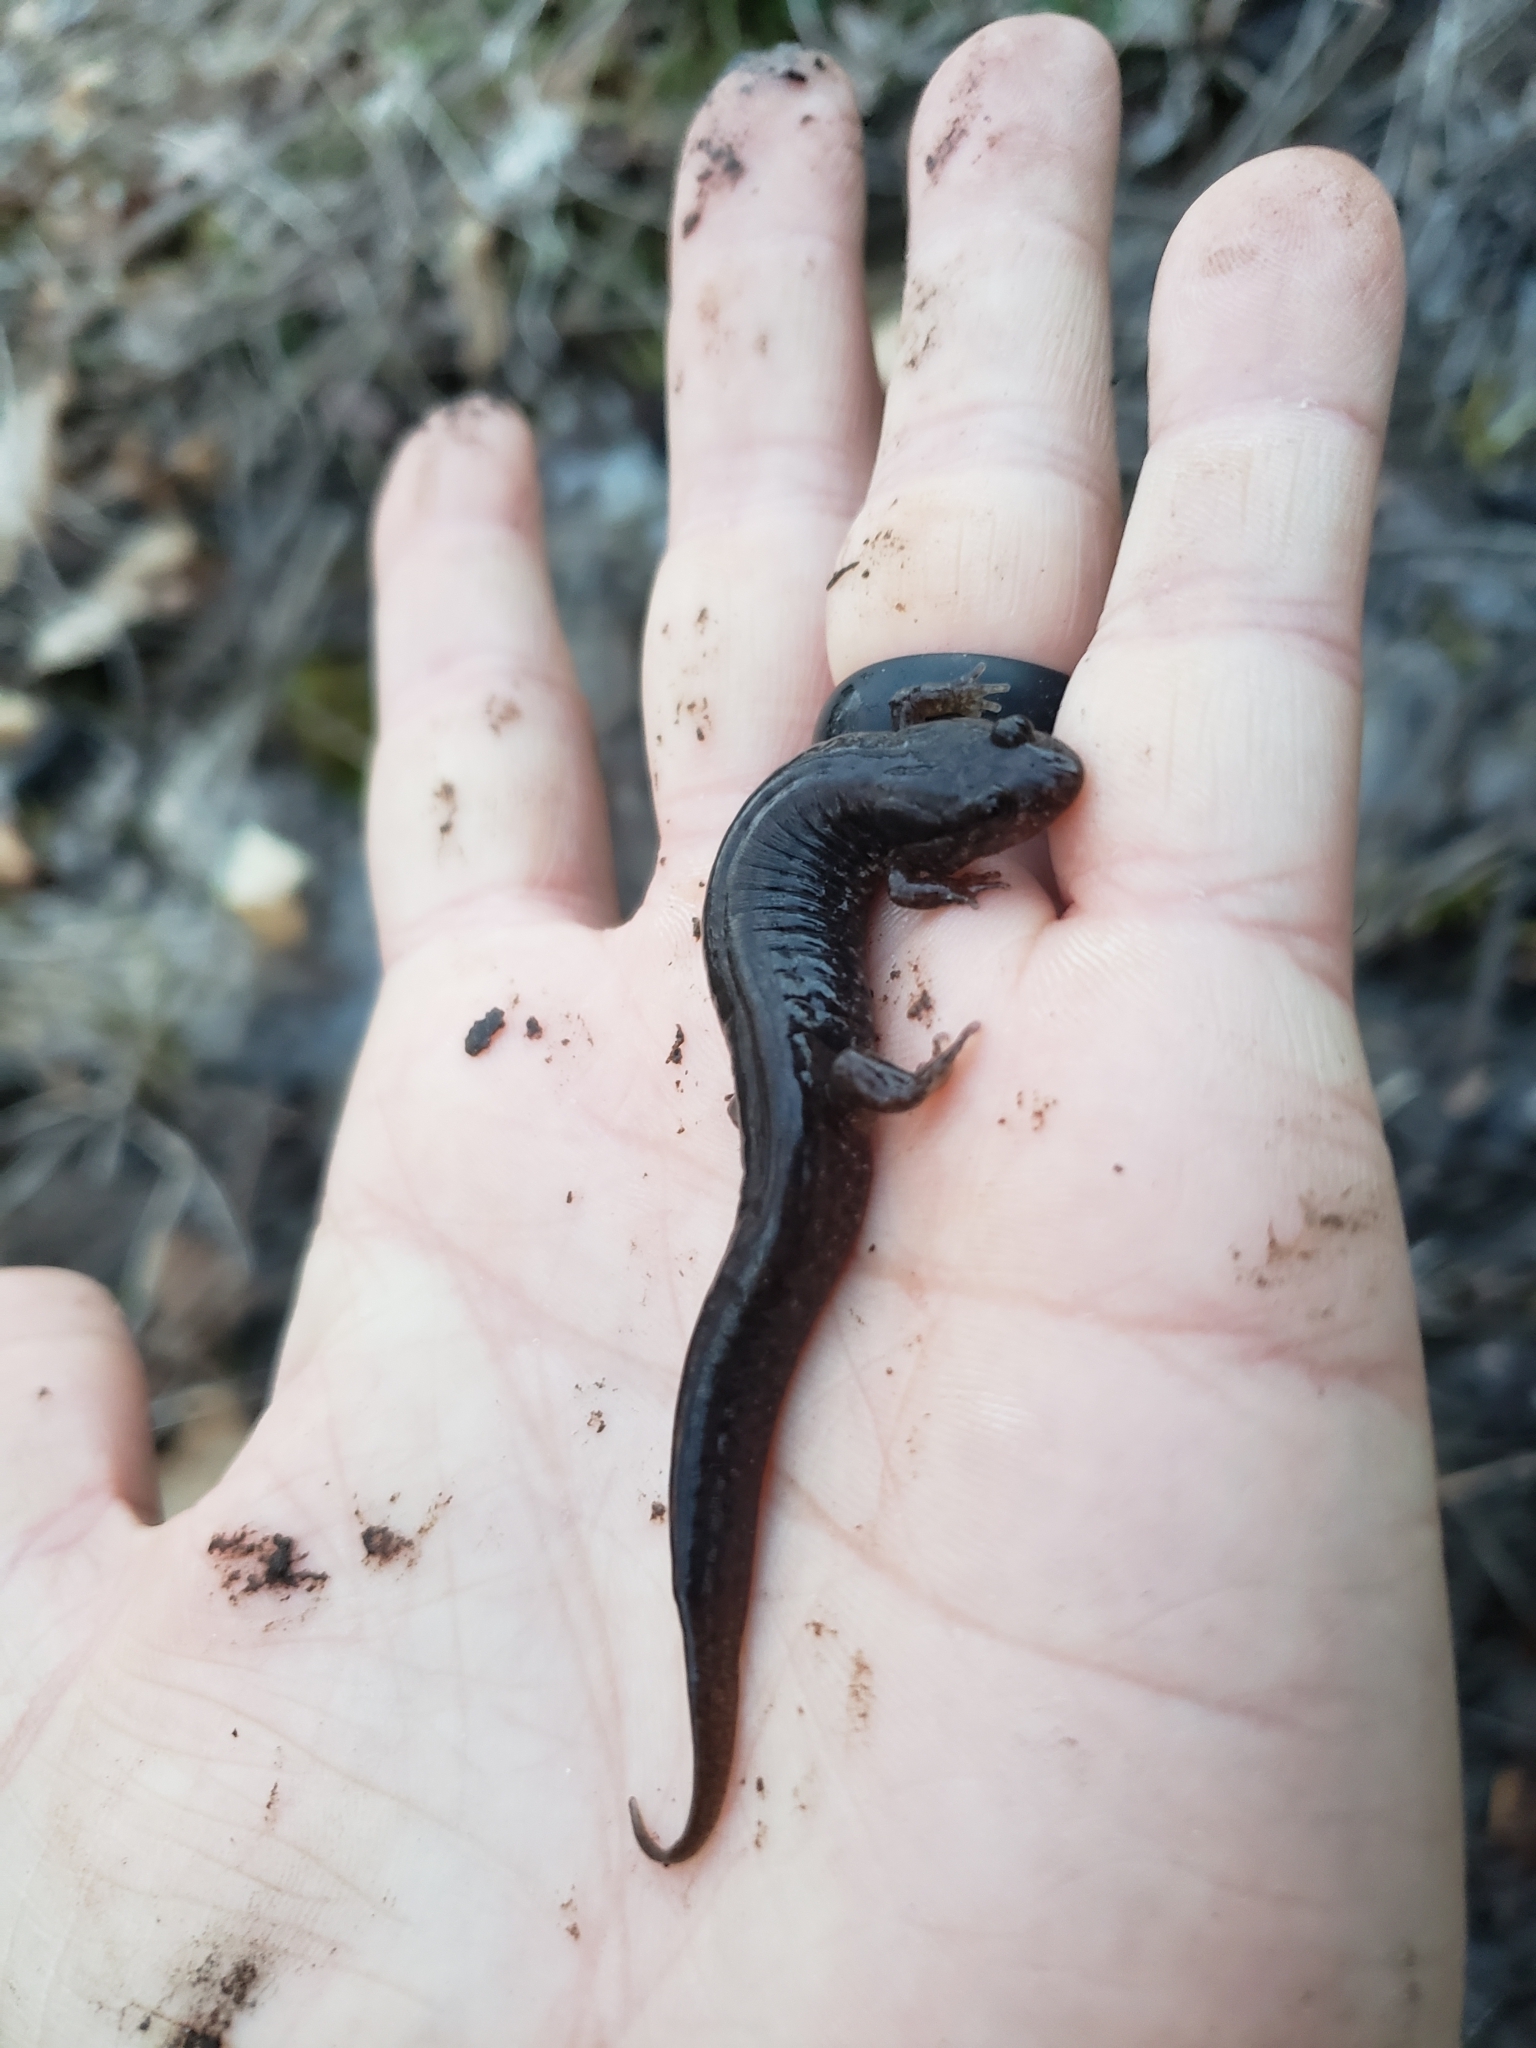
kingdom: Animalia
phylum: Chordata
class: Amphibia
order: Caudata
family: Plethodontidae
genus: Desmognathus
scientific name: Desmognathus fuscus
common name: Northern dusky salamander
